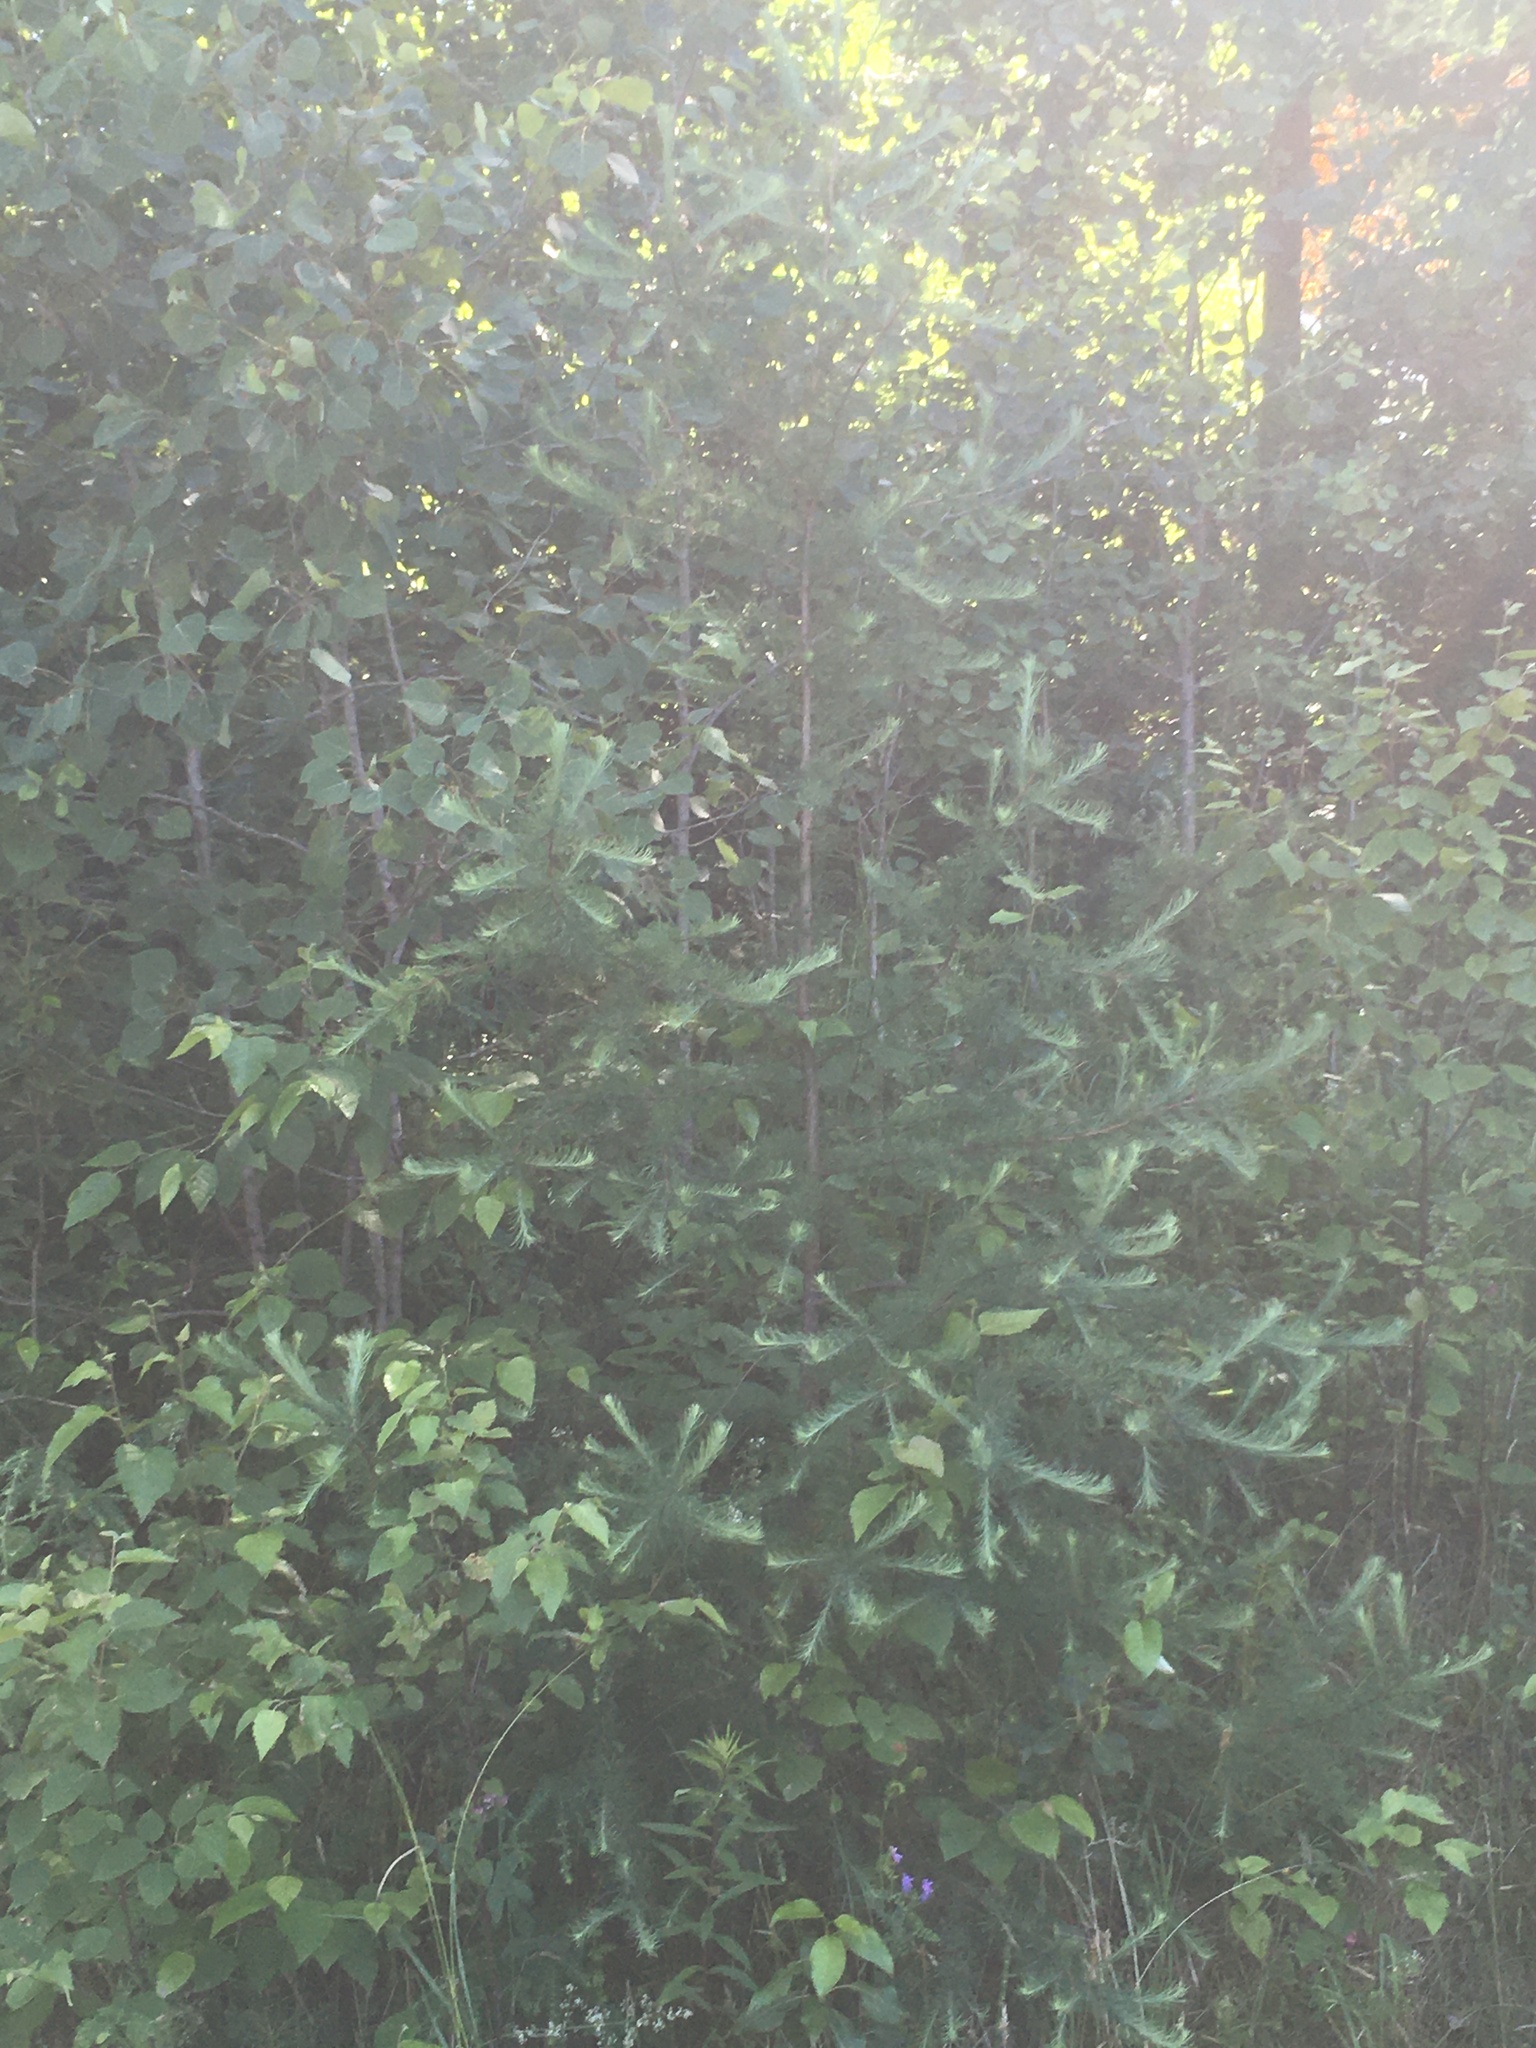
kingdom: Plantae
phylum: Tracheophyta
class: Pinopsida
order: Pinales
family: Pinaceae
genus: Larix
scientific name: Larix laricina
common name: American larch
